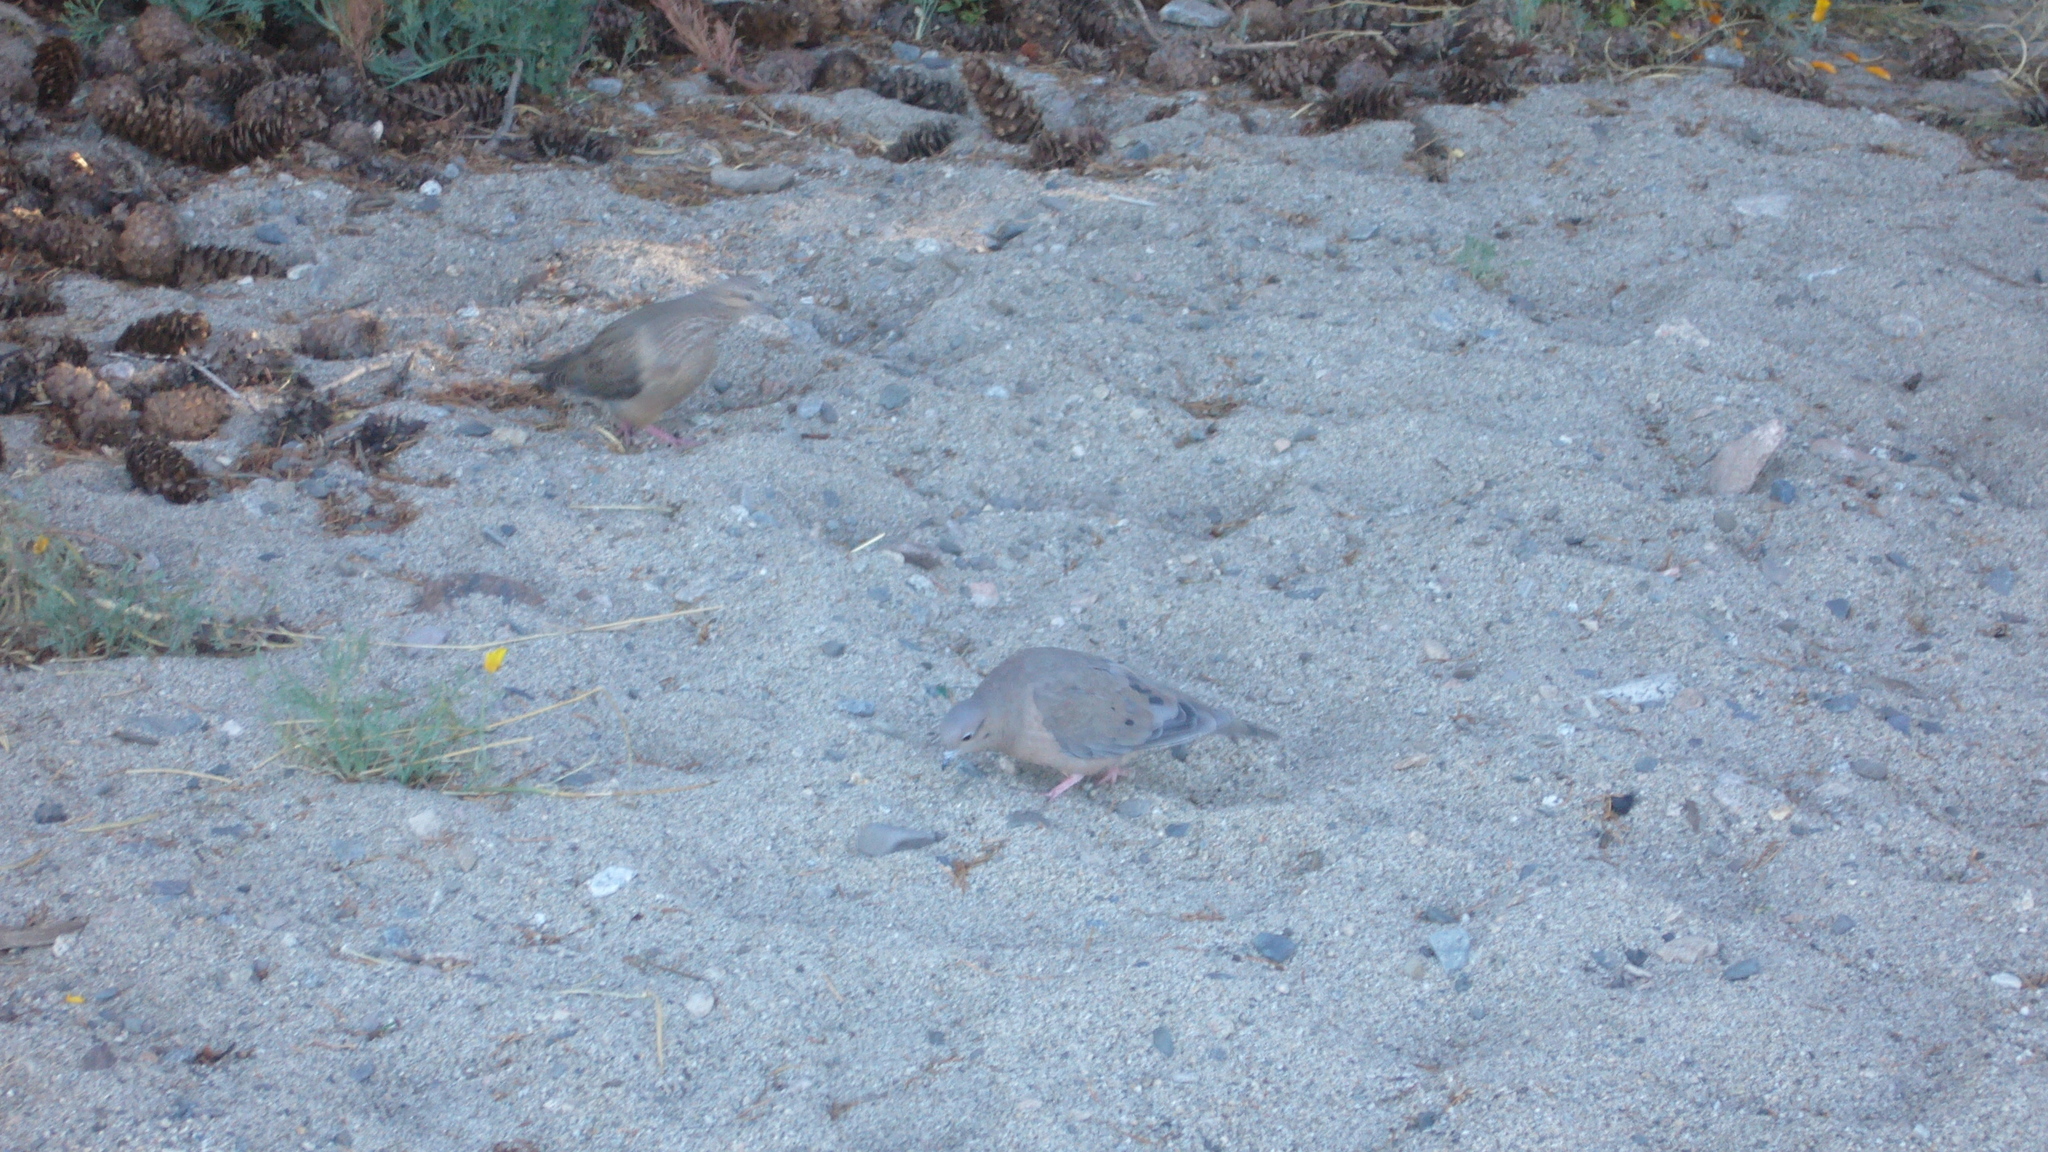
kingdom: Animalia
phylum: Chordata
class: Aves
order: Columbiformes
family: Columbidae
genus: Zenaida
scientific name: Zenaida auriculata
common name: Eared dove
